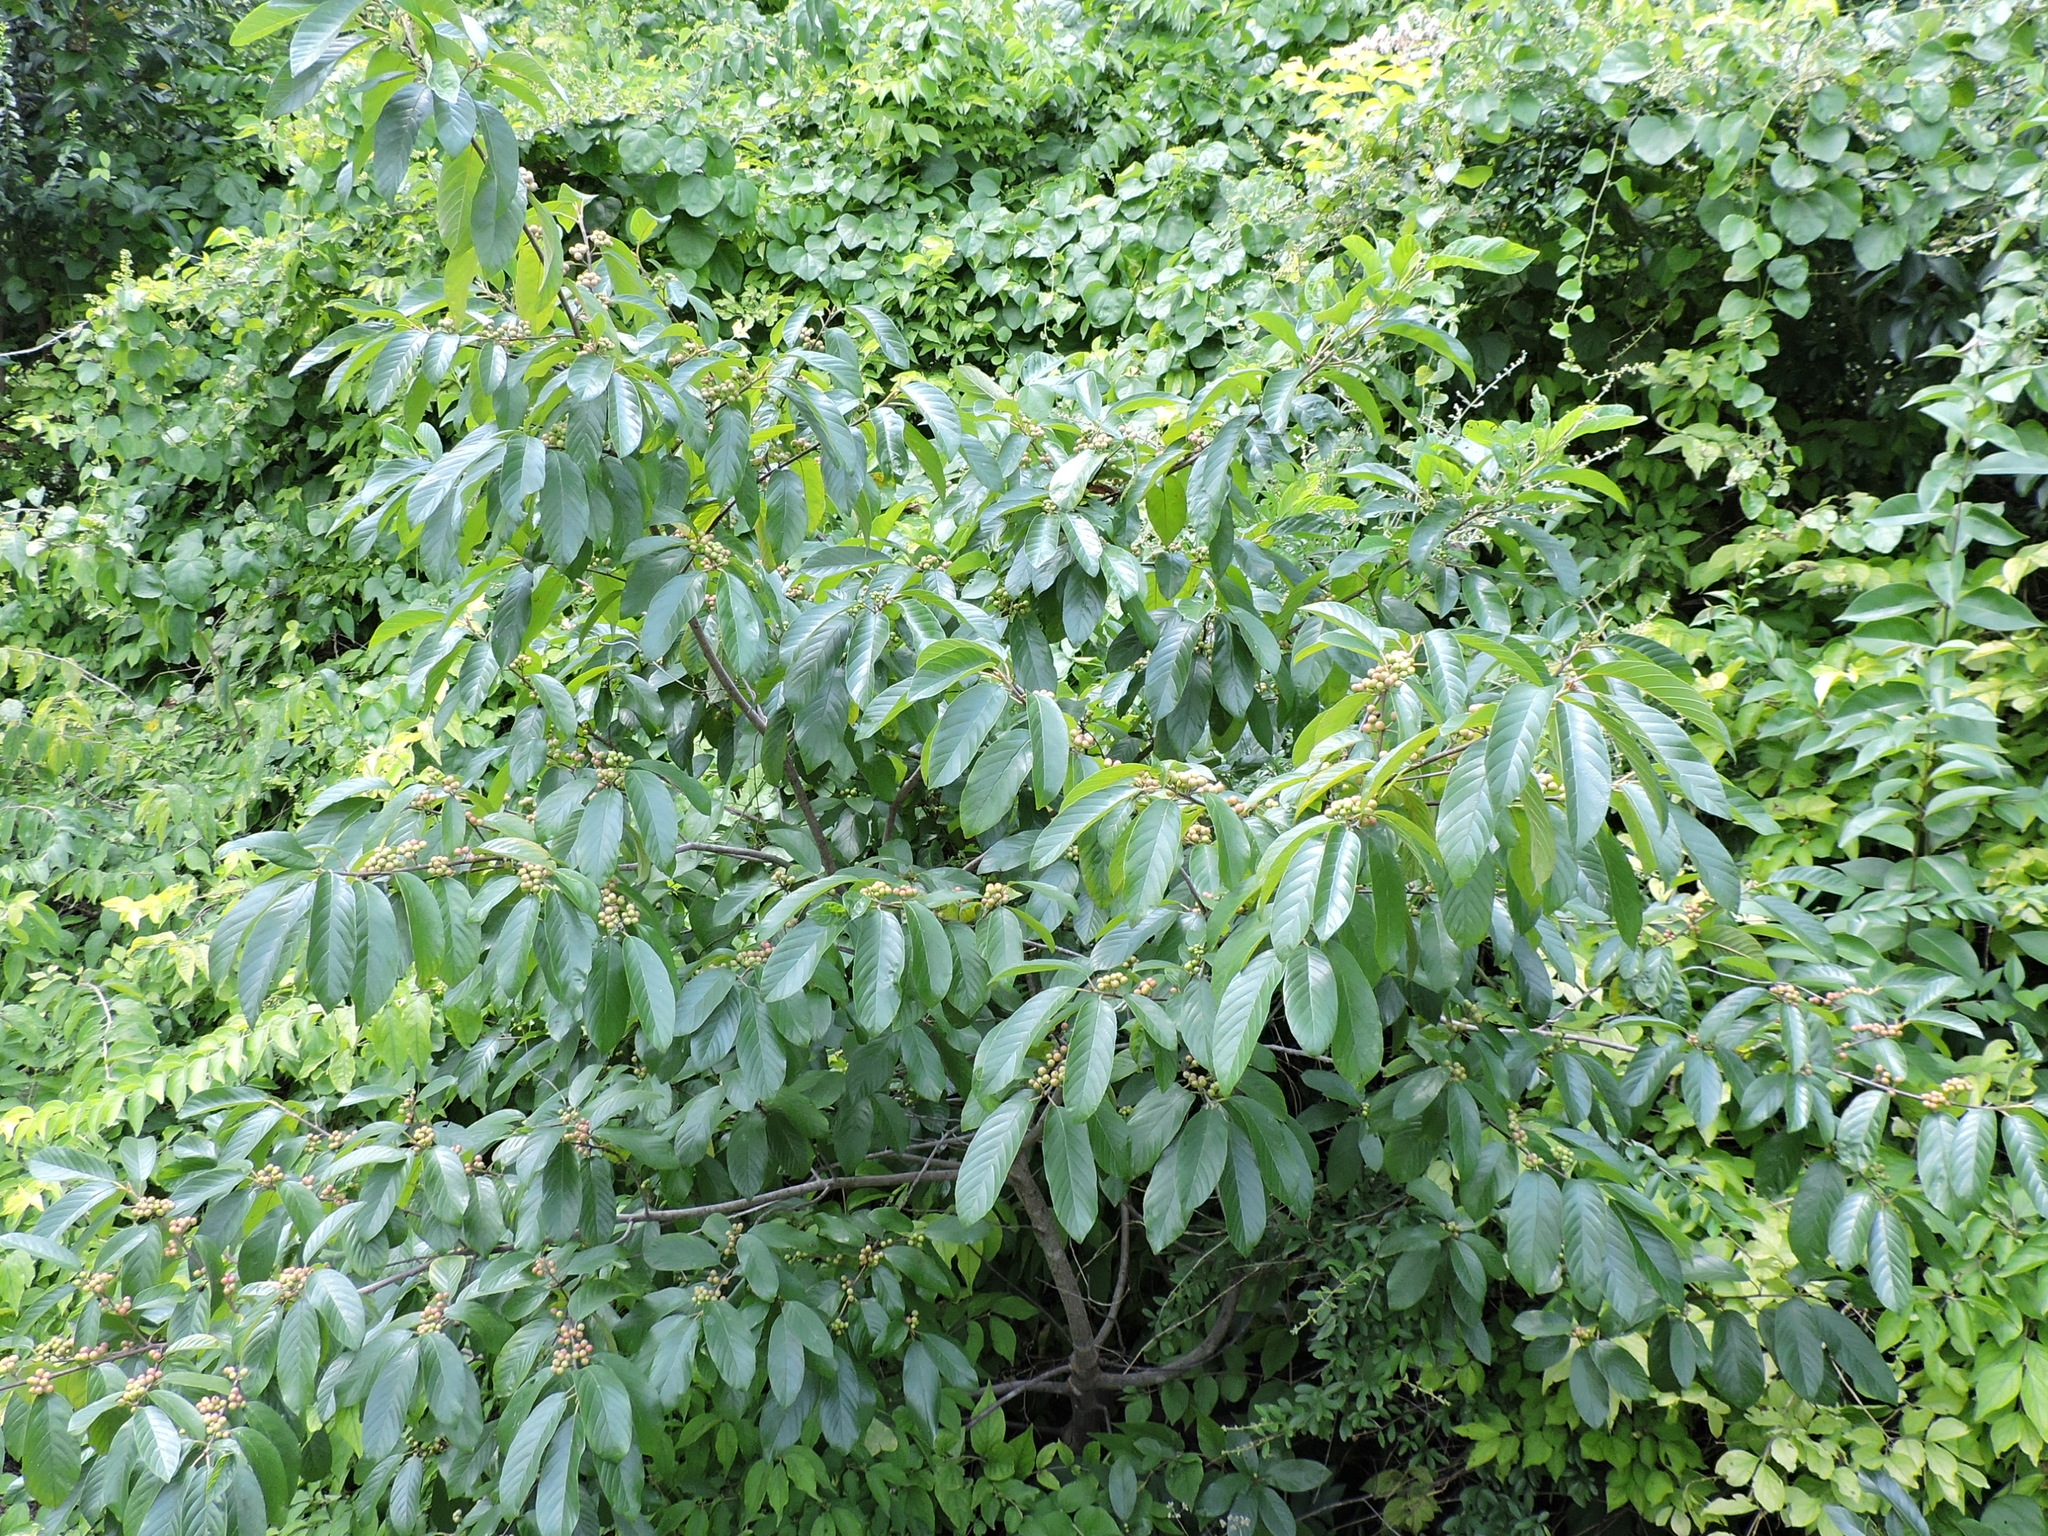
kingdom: Plantae
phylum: Tracheophyta
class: Magnoliopsida
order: Rosales
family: Rhamnaceae
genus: Frangula
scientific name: Frangula caroliniana
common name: Carolina buckthorn
